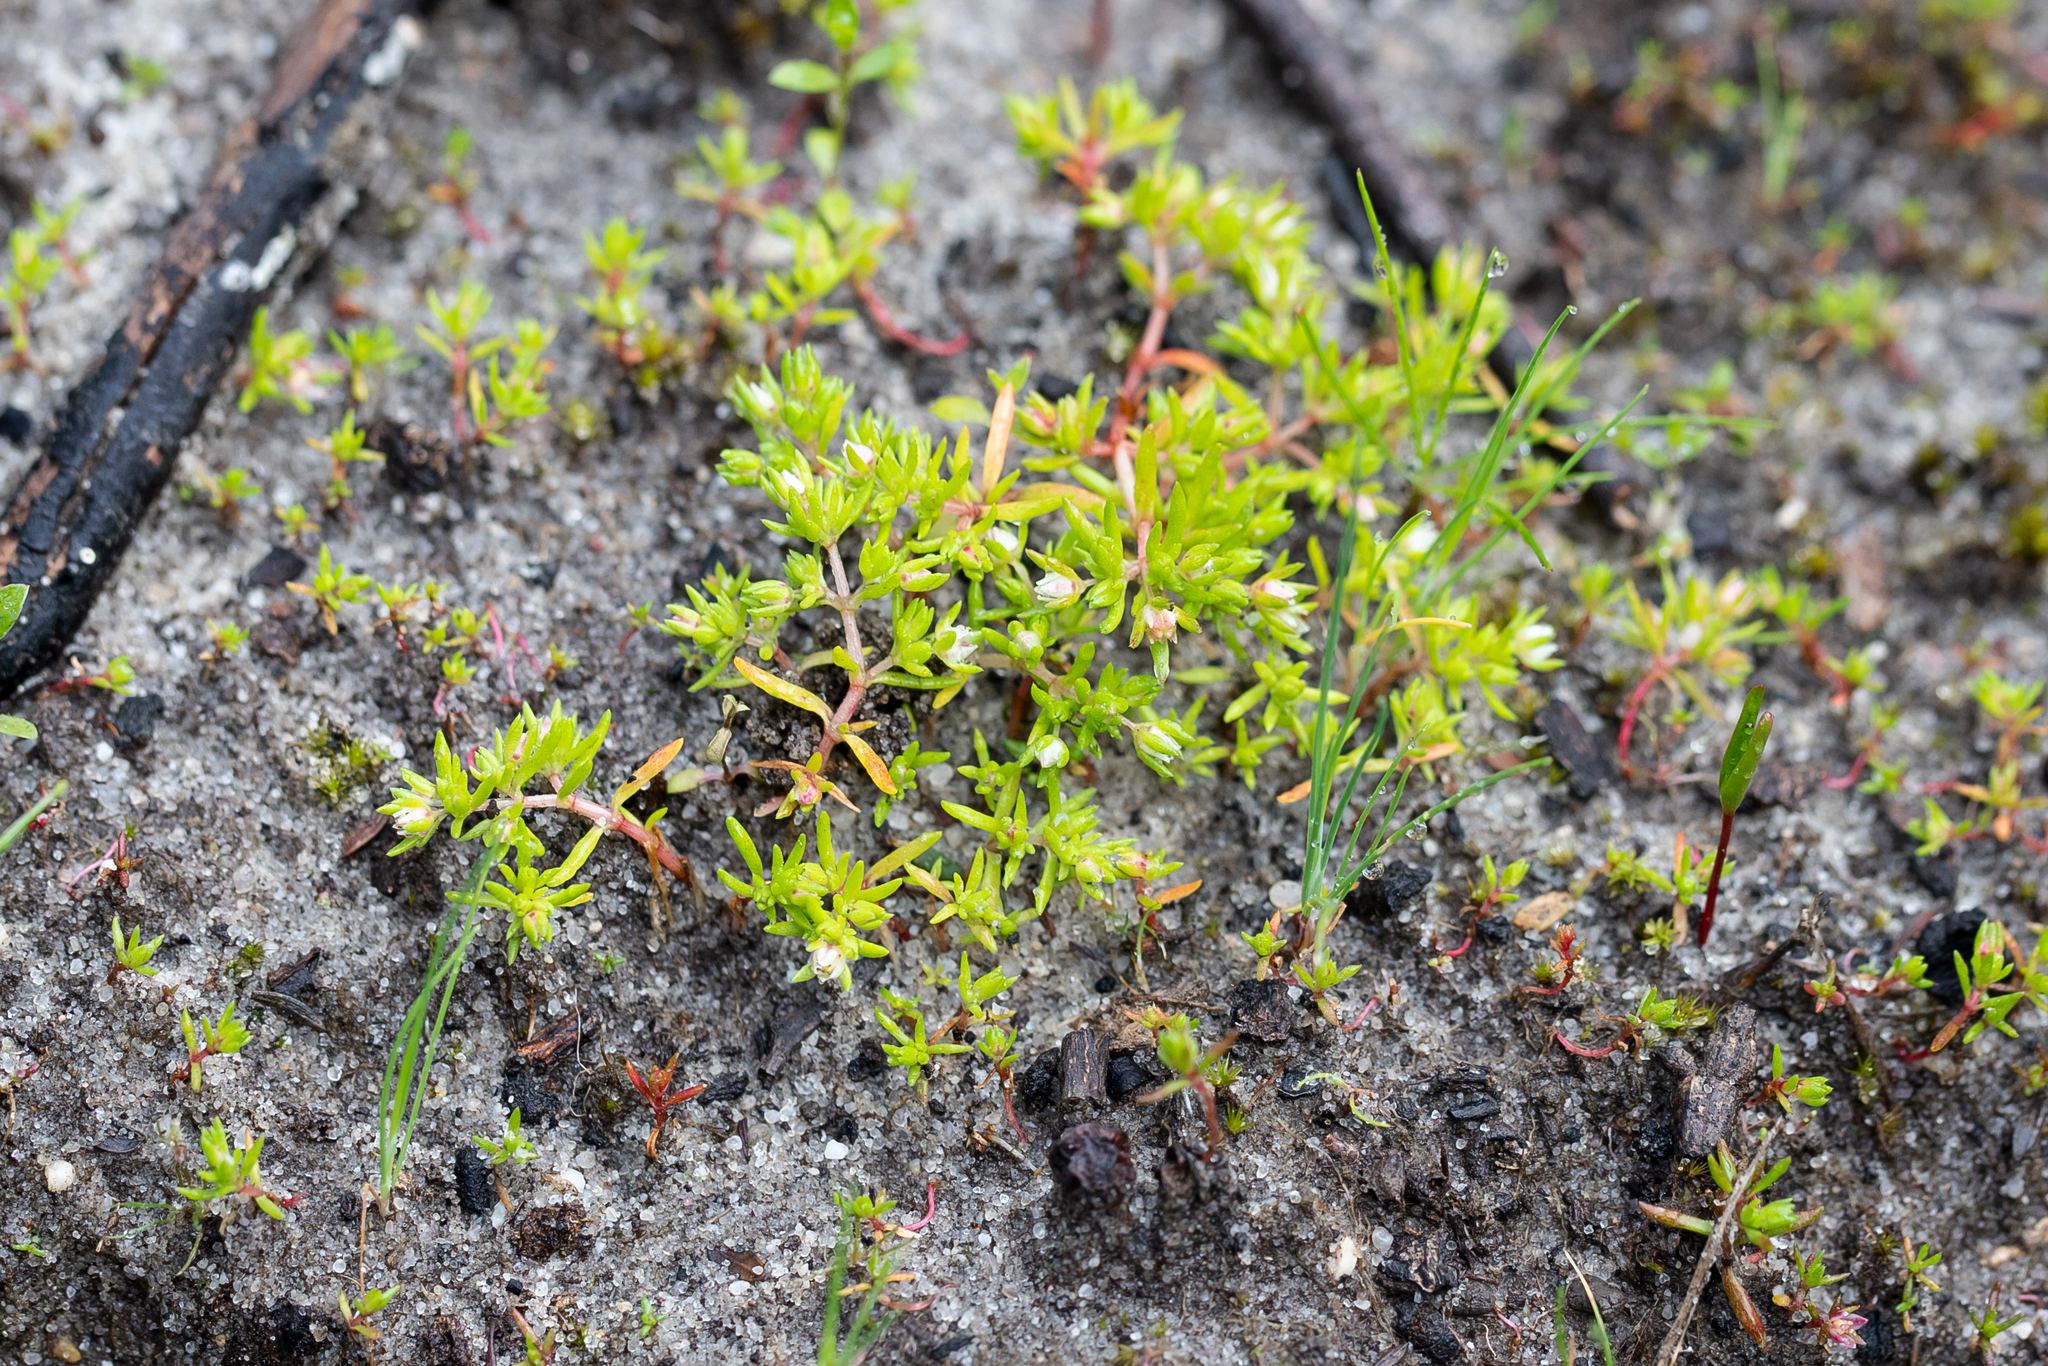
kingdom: Plantae
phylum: Tracheophyta
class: Magnoliopsida
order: Saxifragales
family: Crassulaceae
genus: Crassula
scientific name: Crassula decumbens
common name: Scilly pigmyweed
